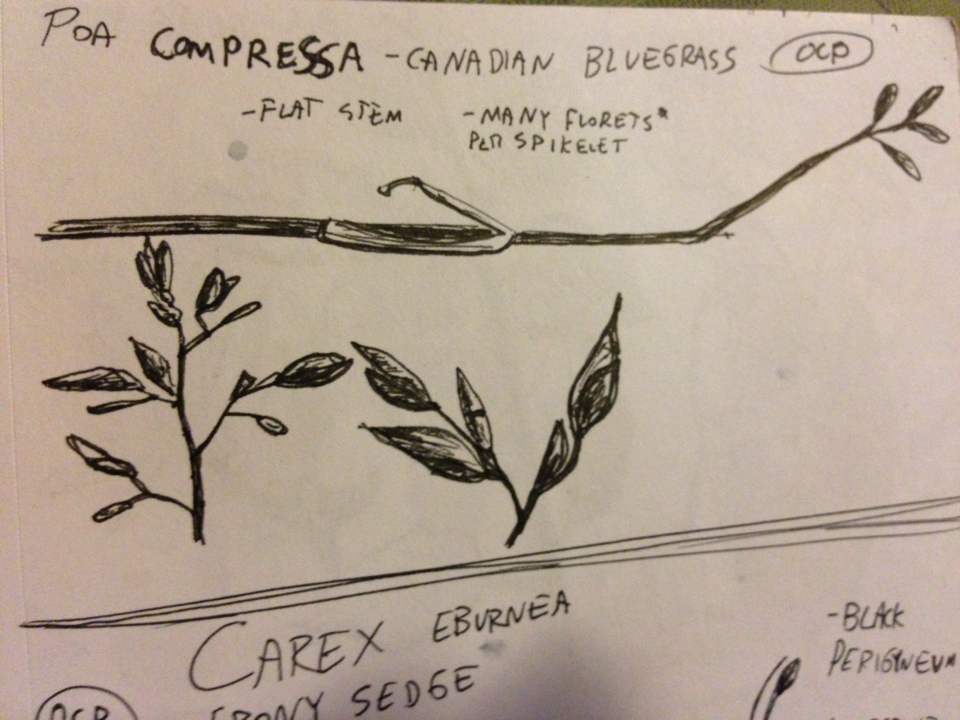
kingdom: Plantae
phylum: Tracheophyta
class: Liliopsida
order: Poales
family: Poaceae
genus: Poa
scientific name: Poa compressa
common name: Canada bluegrass
